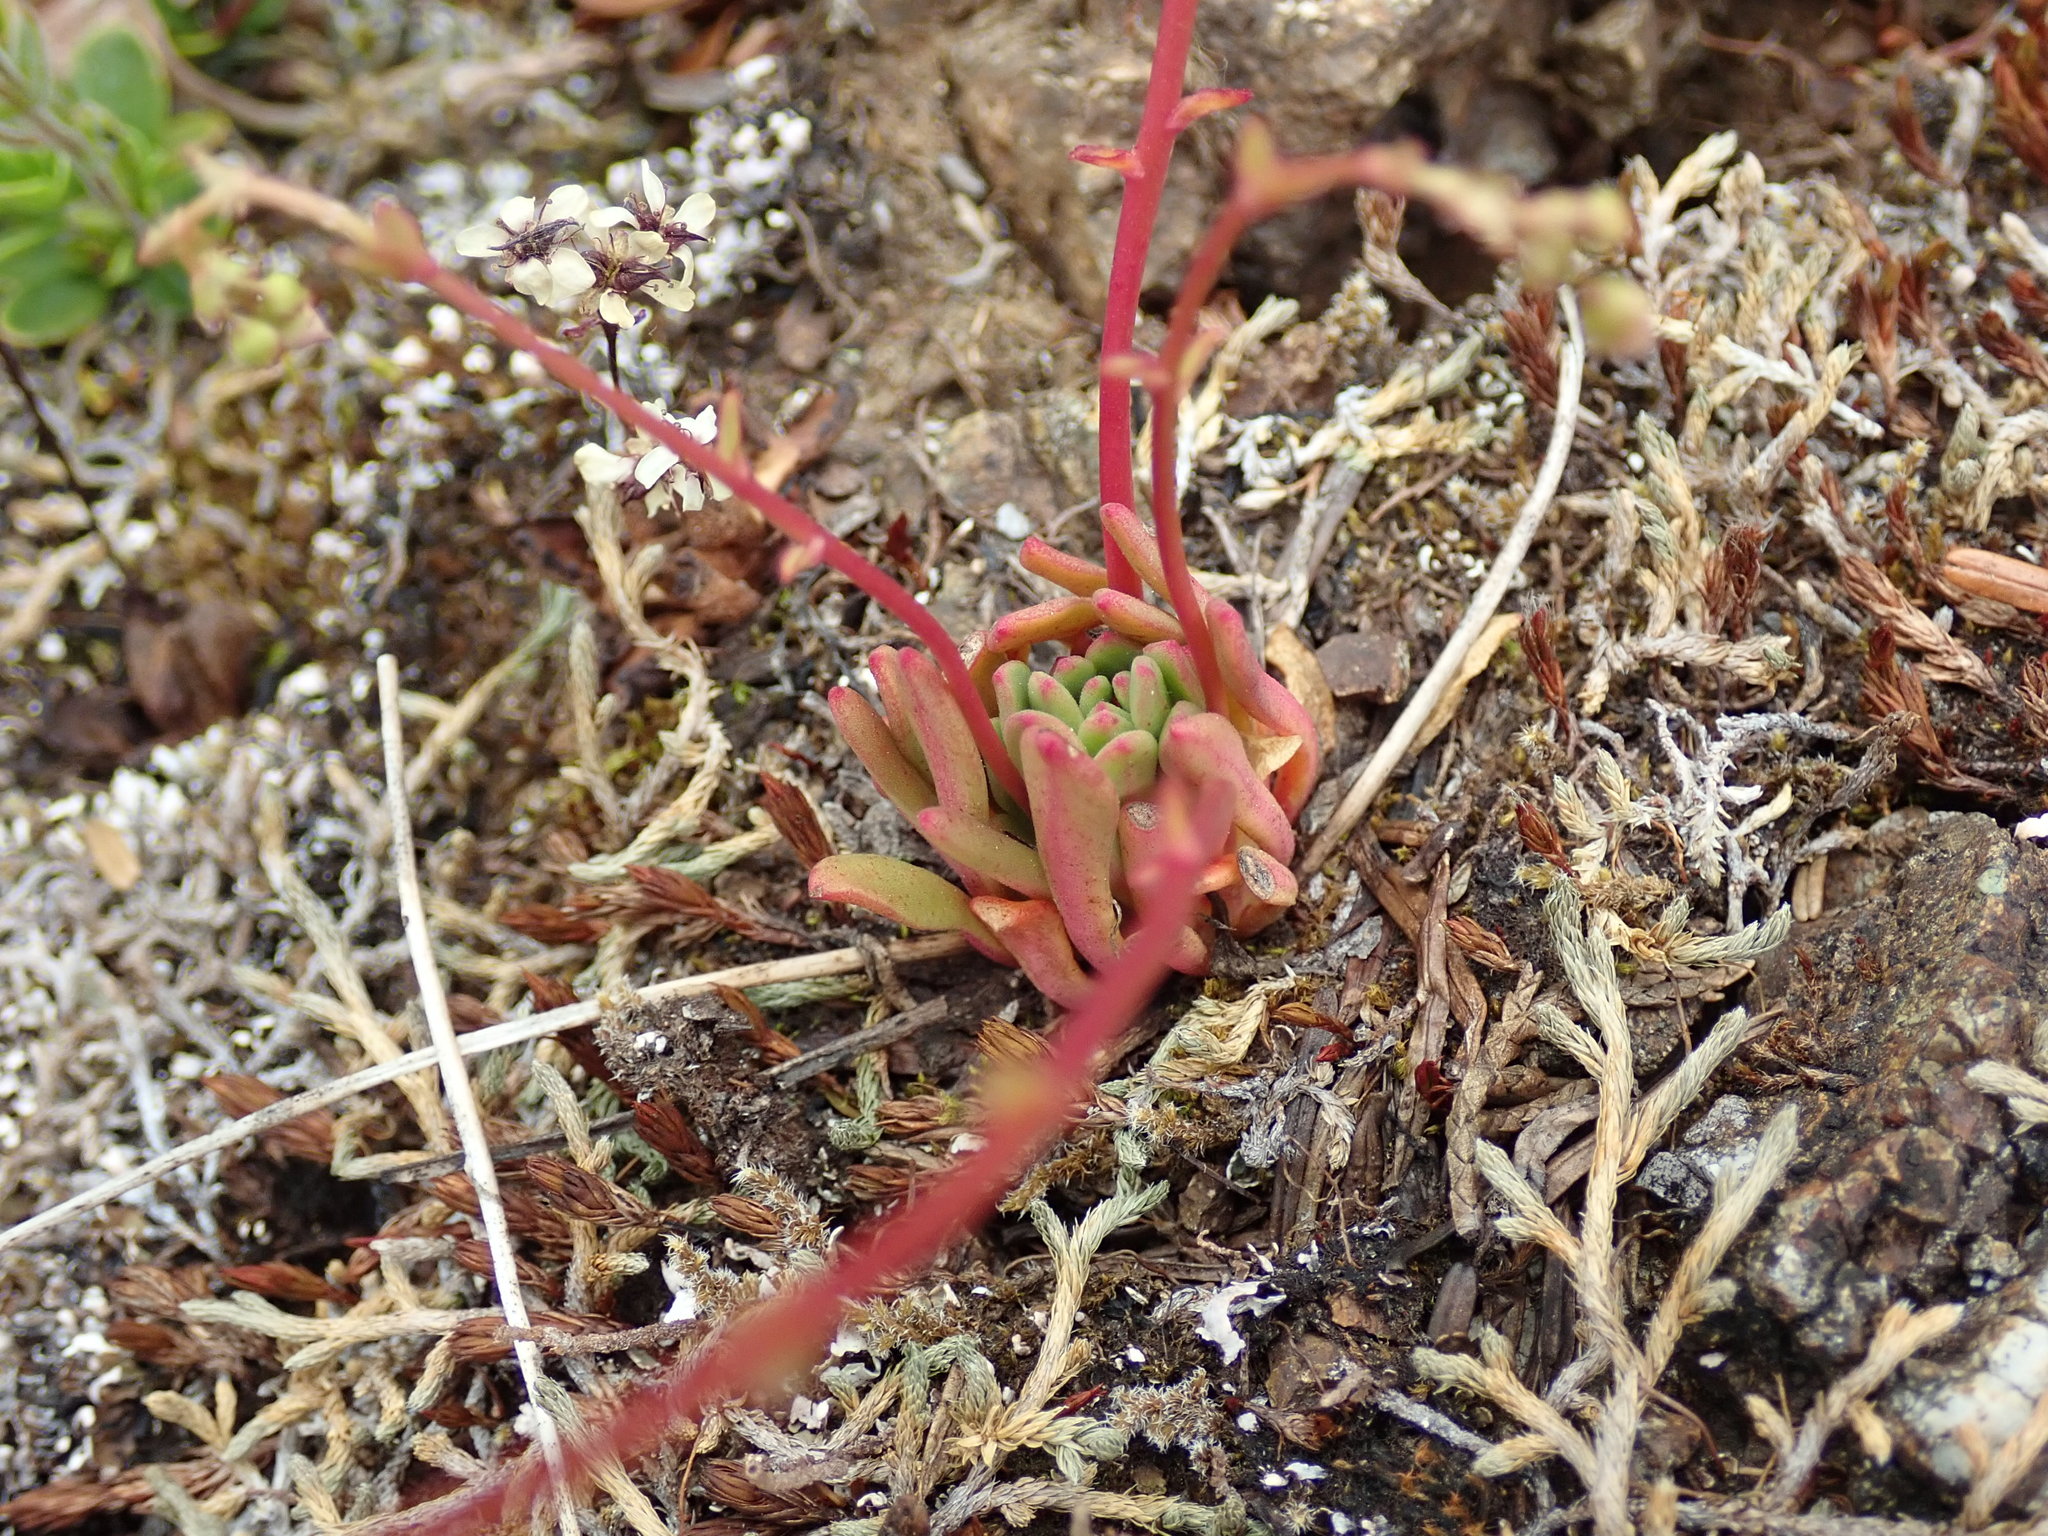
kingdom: Plantae
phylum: Tracheophyta
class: Magnoliopsida
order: Caryophyllales
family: Montiaceae
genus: Lewisia
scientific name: Lewisia columbiana
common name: Columbia lewisia
